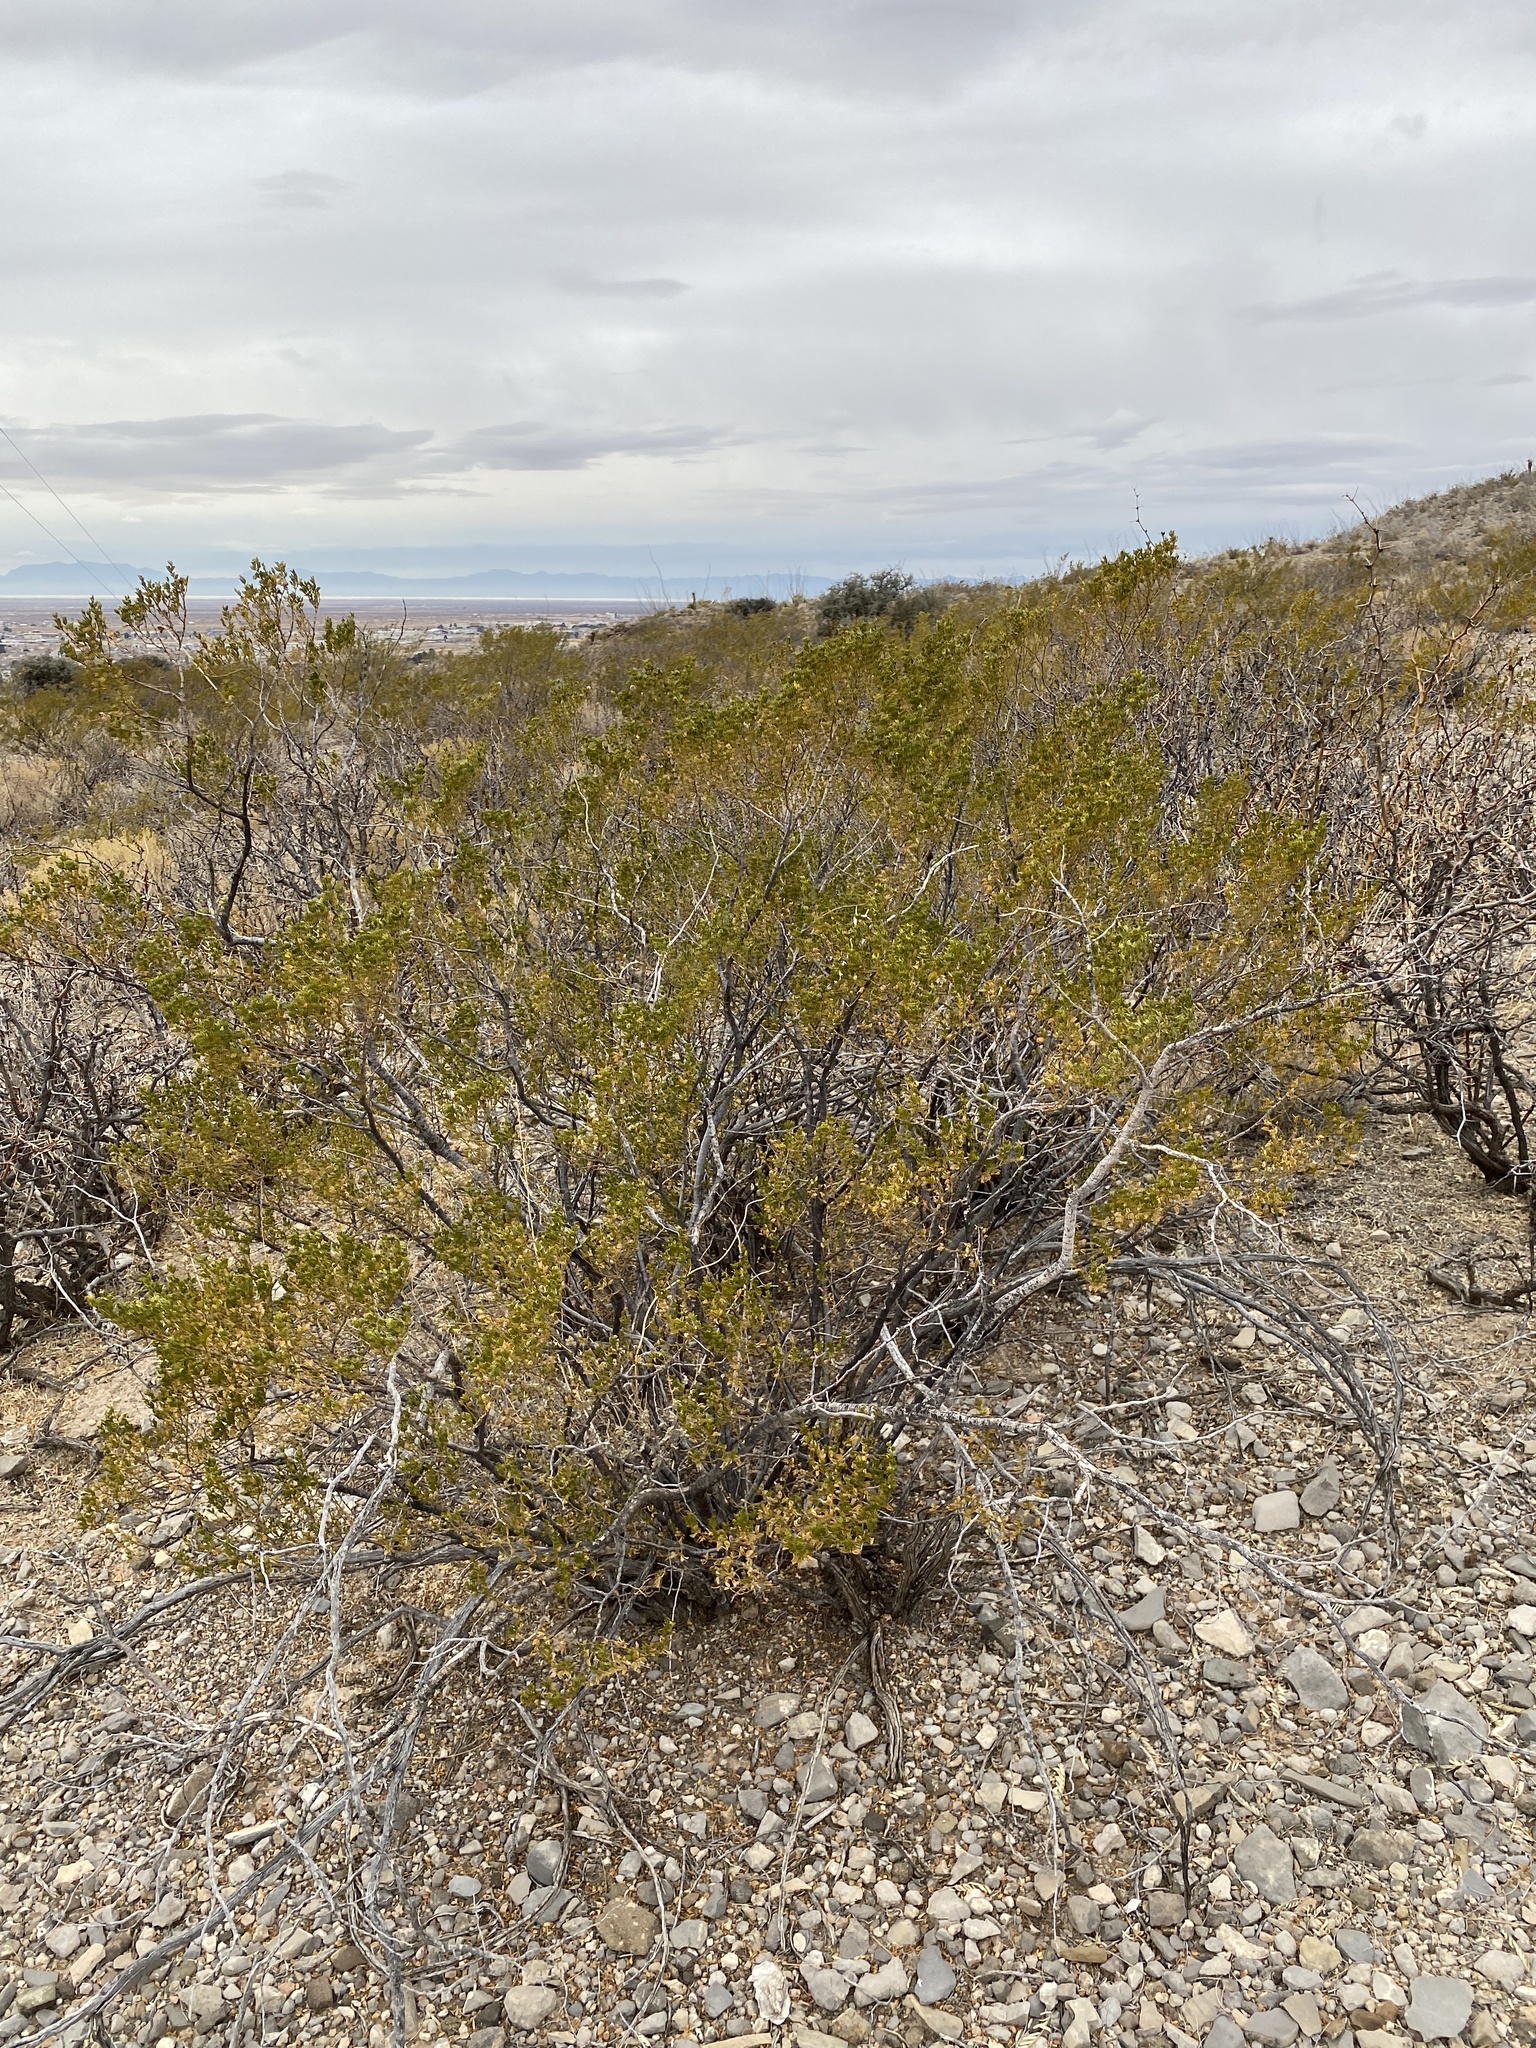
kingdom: Plantae
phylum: Tracheophyta
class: Magnoliopsida
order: Zygophyllales
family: Zygophyllaceae
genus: Larrea
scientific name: Larrea tridentata
